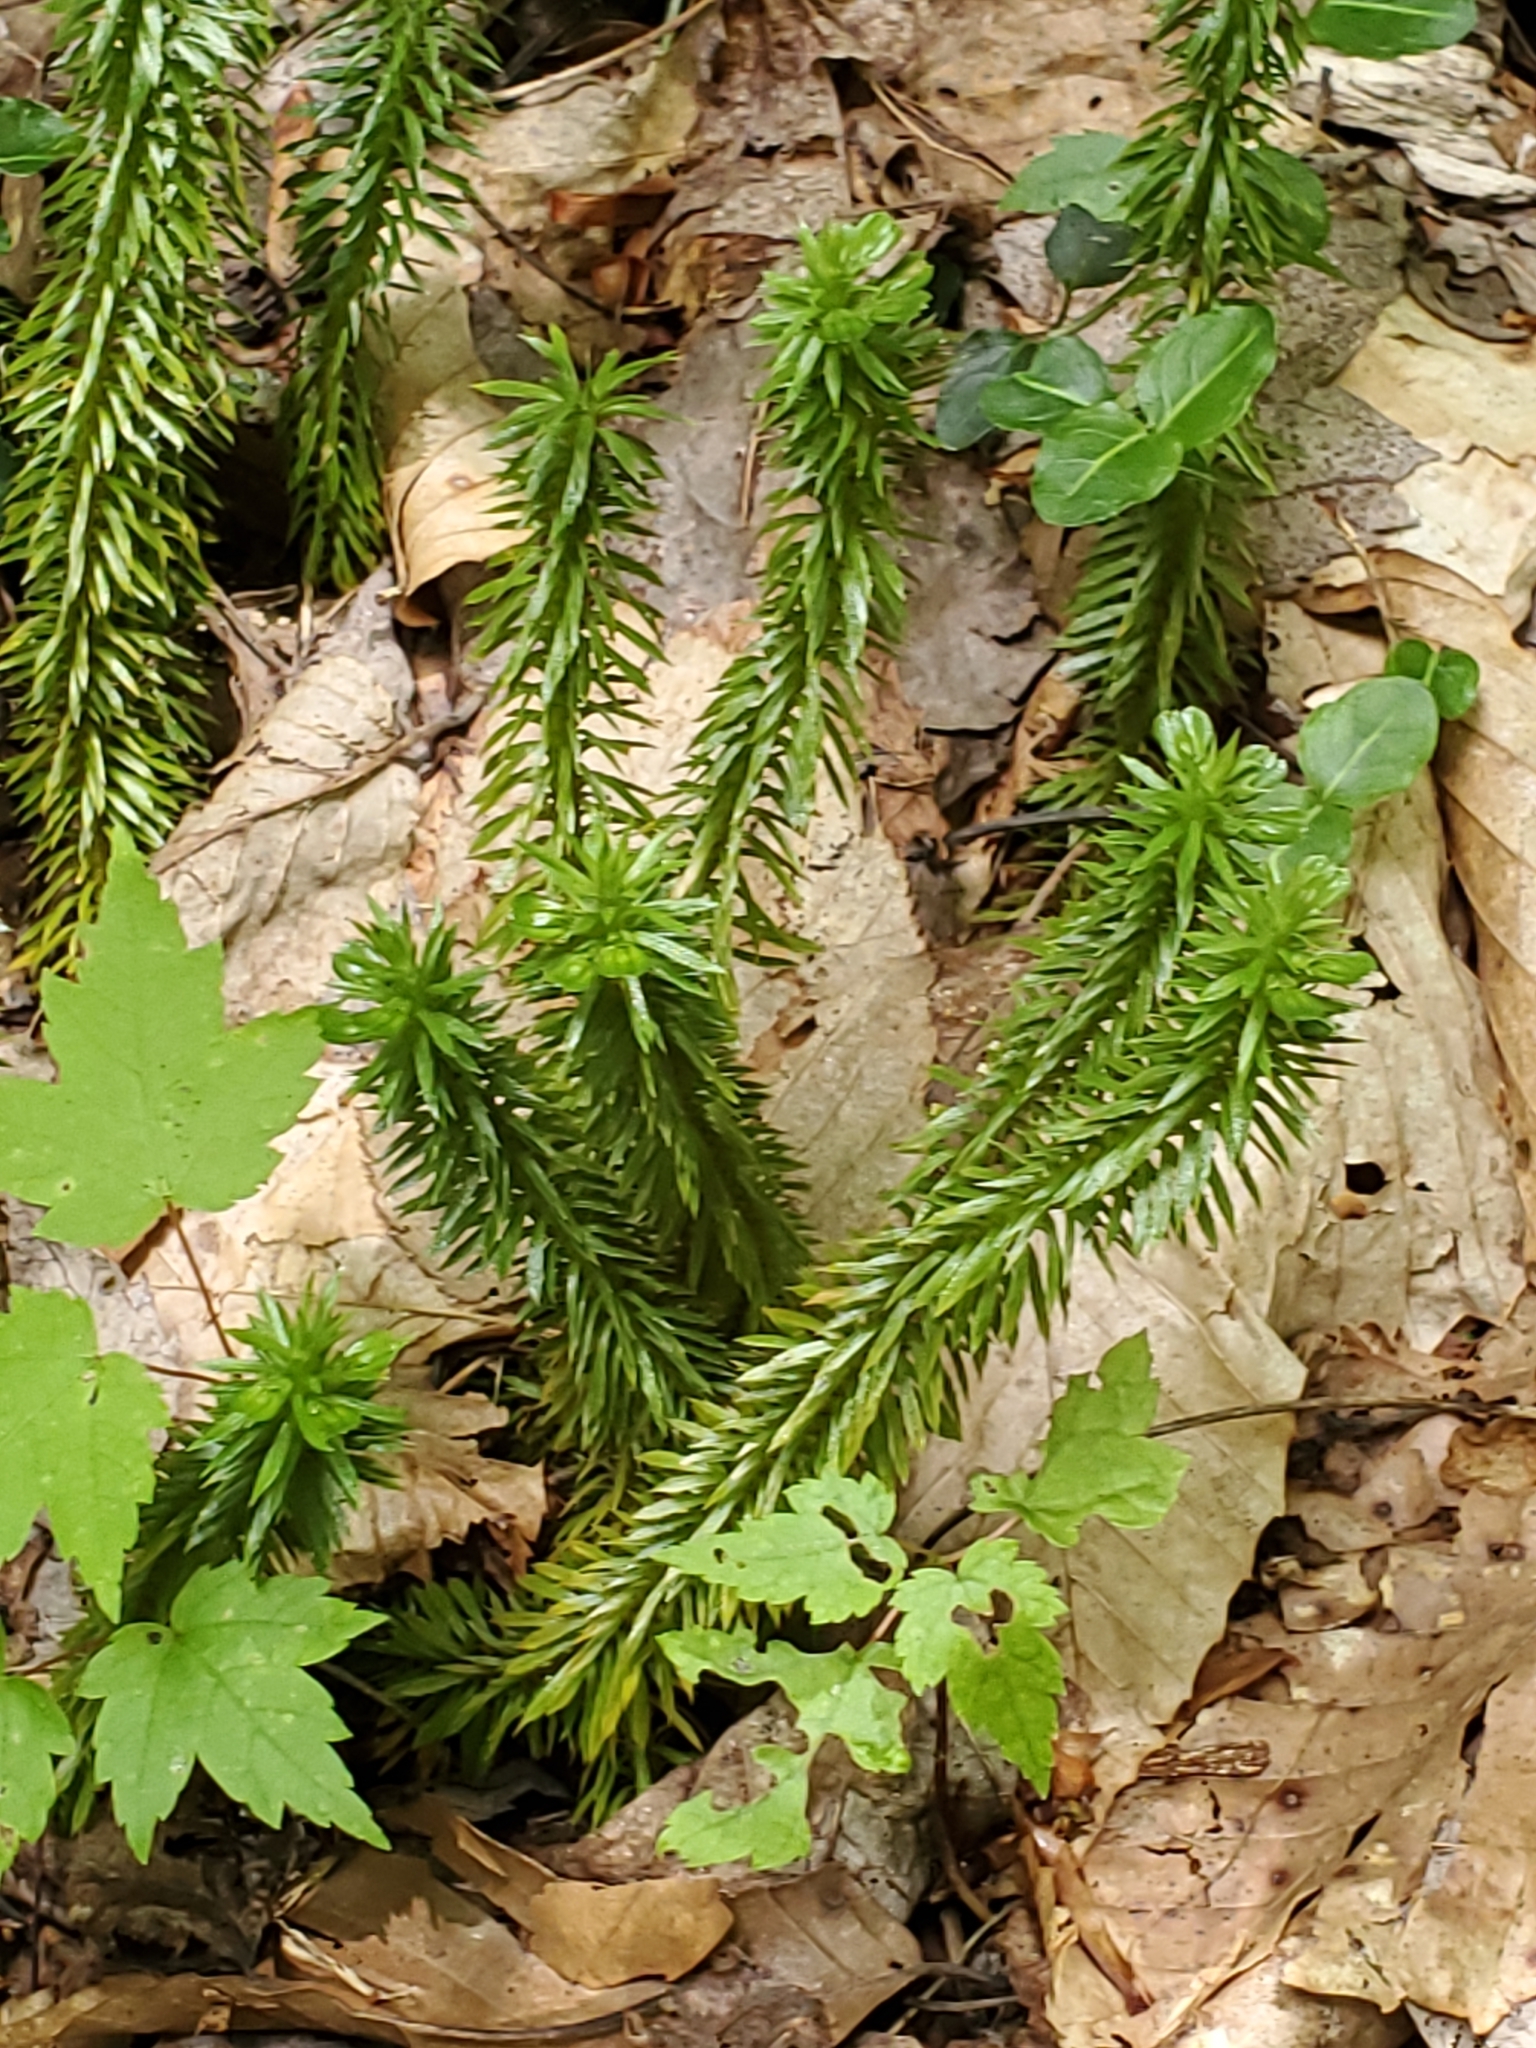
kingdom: Plantae
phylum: Tracheophyta
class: Lycopodiopsida
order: Lycopodiales
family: Lycopodiaceae
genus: Huperzia
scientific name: Huperzia lucidula
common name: Shining clubmoss
